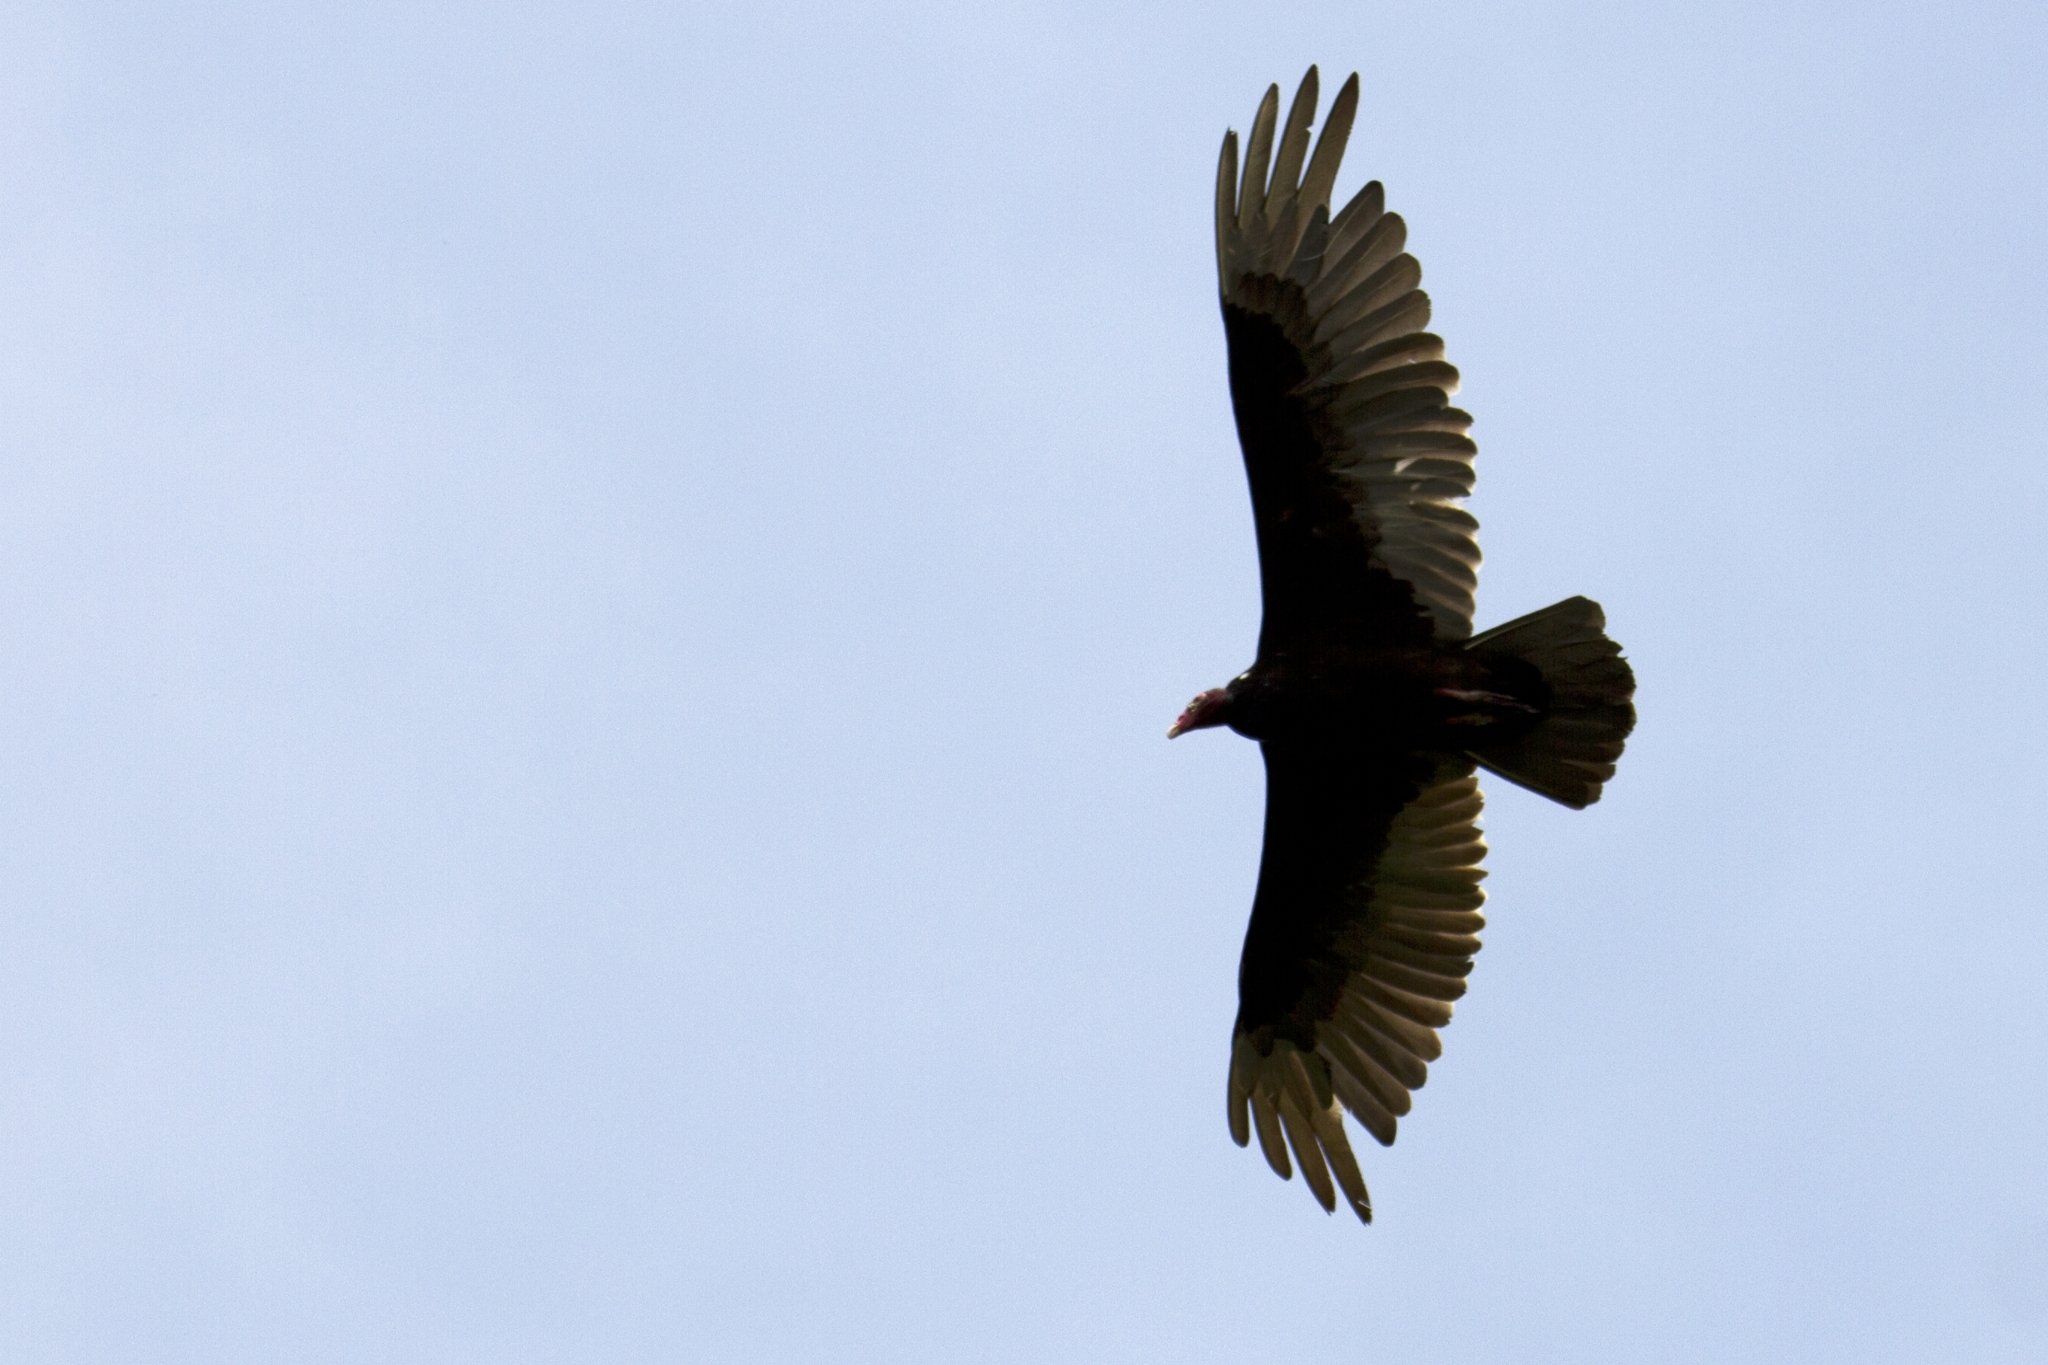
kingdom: Animalia
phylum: Chordata
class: Aves
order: Accipitriformes
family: Cathartidae
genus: Cathartes
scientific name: Cathartes aura
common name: Turkey vulture
